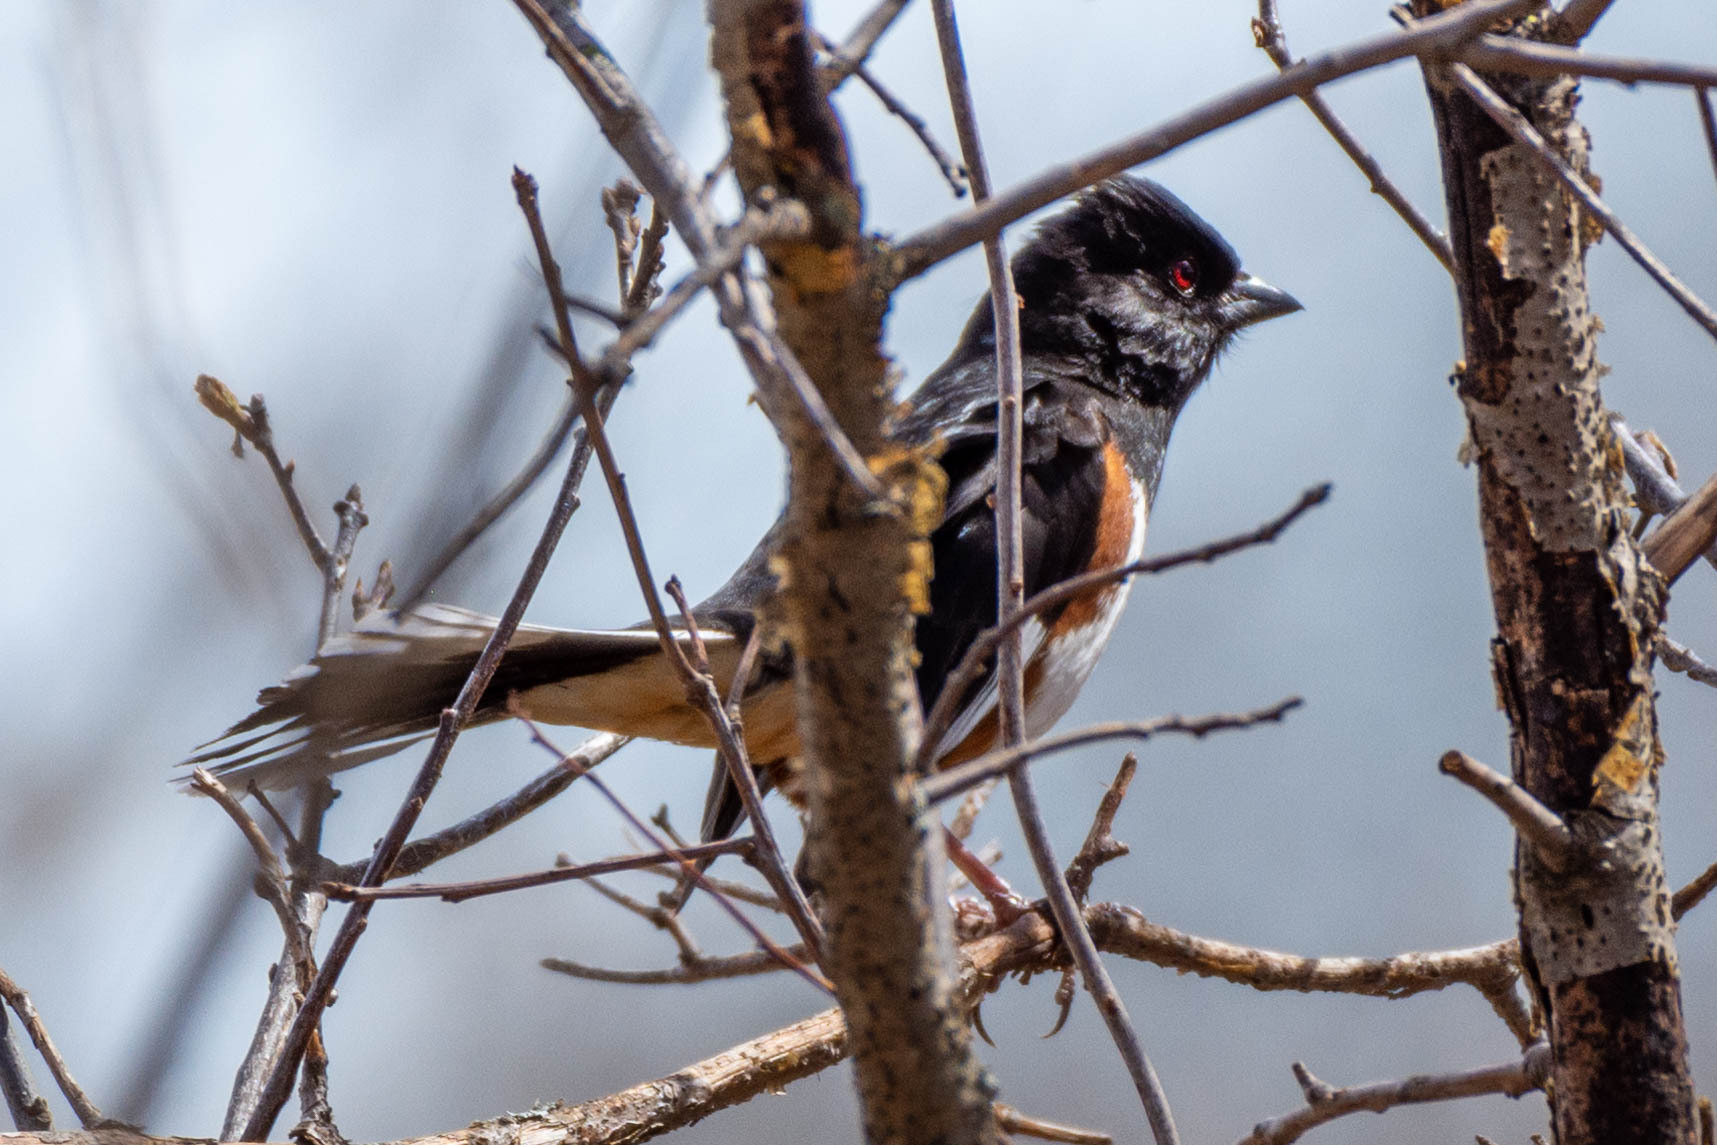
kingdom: Animalia
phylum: Chordata
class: Aves
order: Passeriformes
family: Passerellidae
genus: Pipilo
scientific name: Pipilo erythrophthalmus
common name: Eastern towhee
